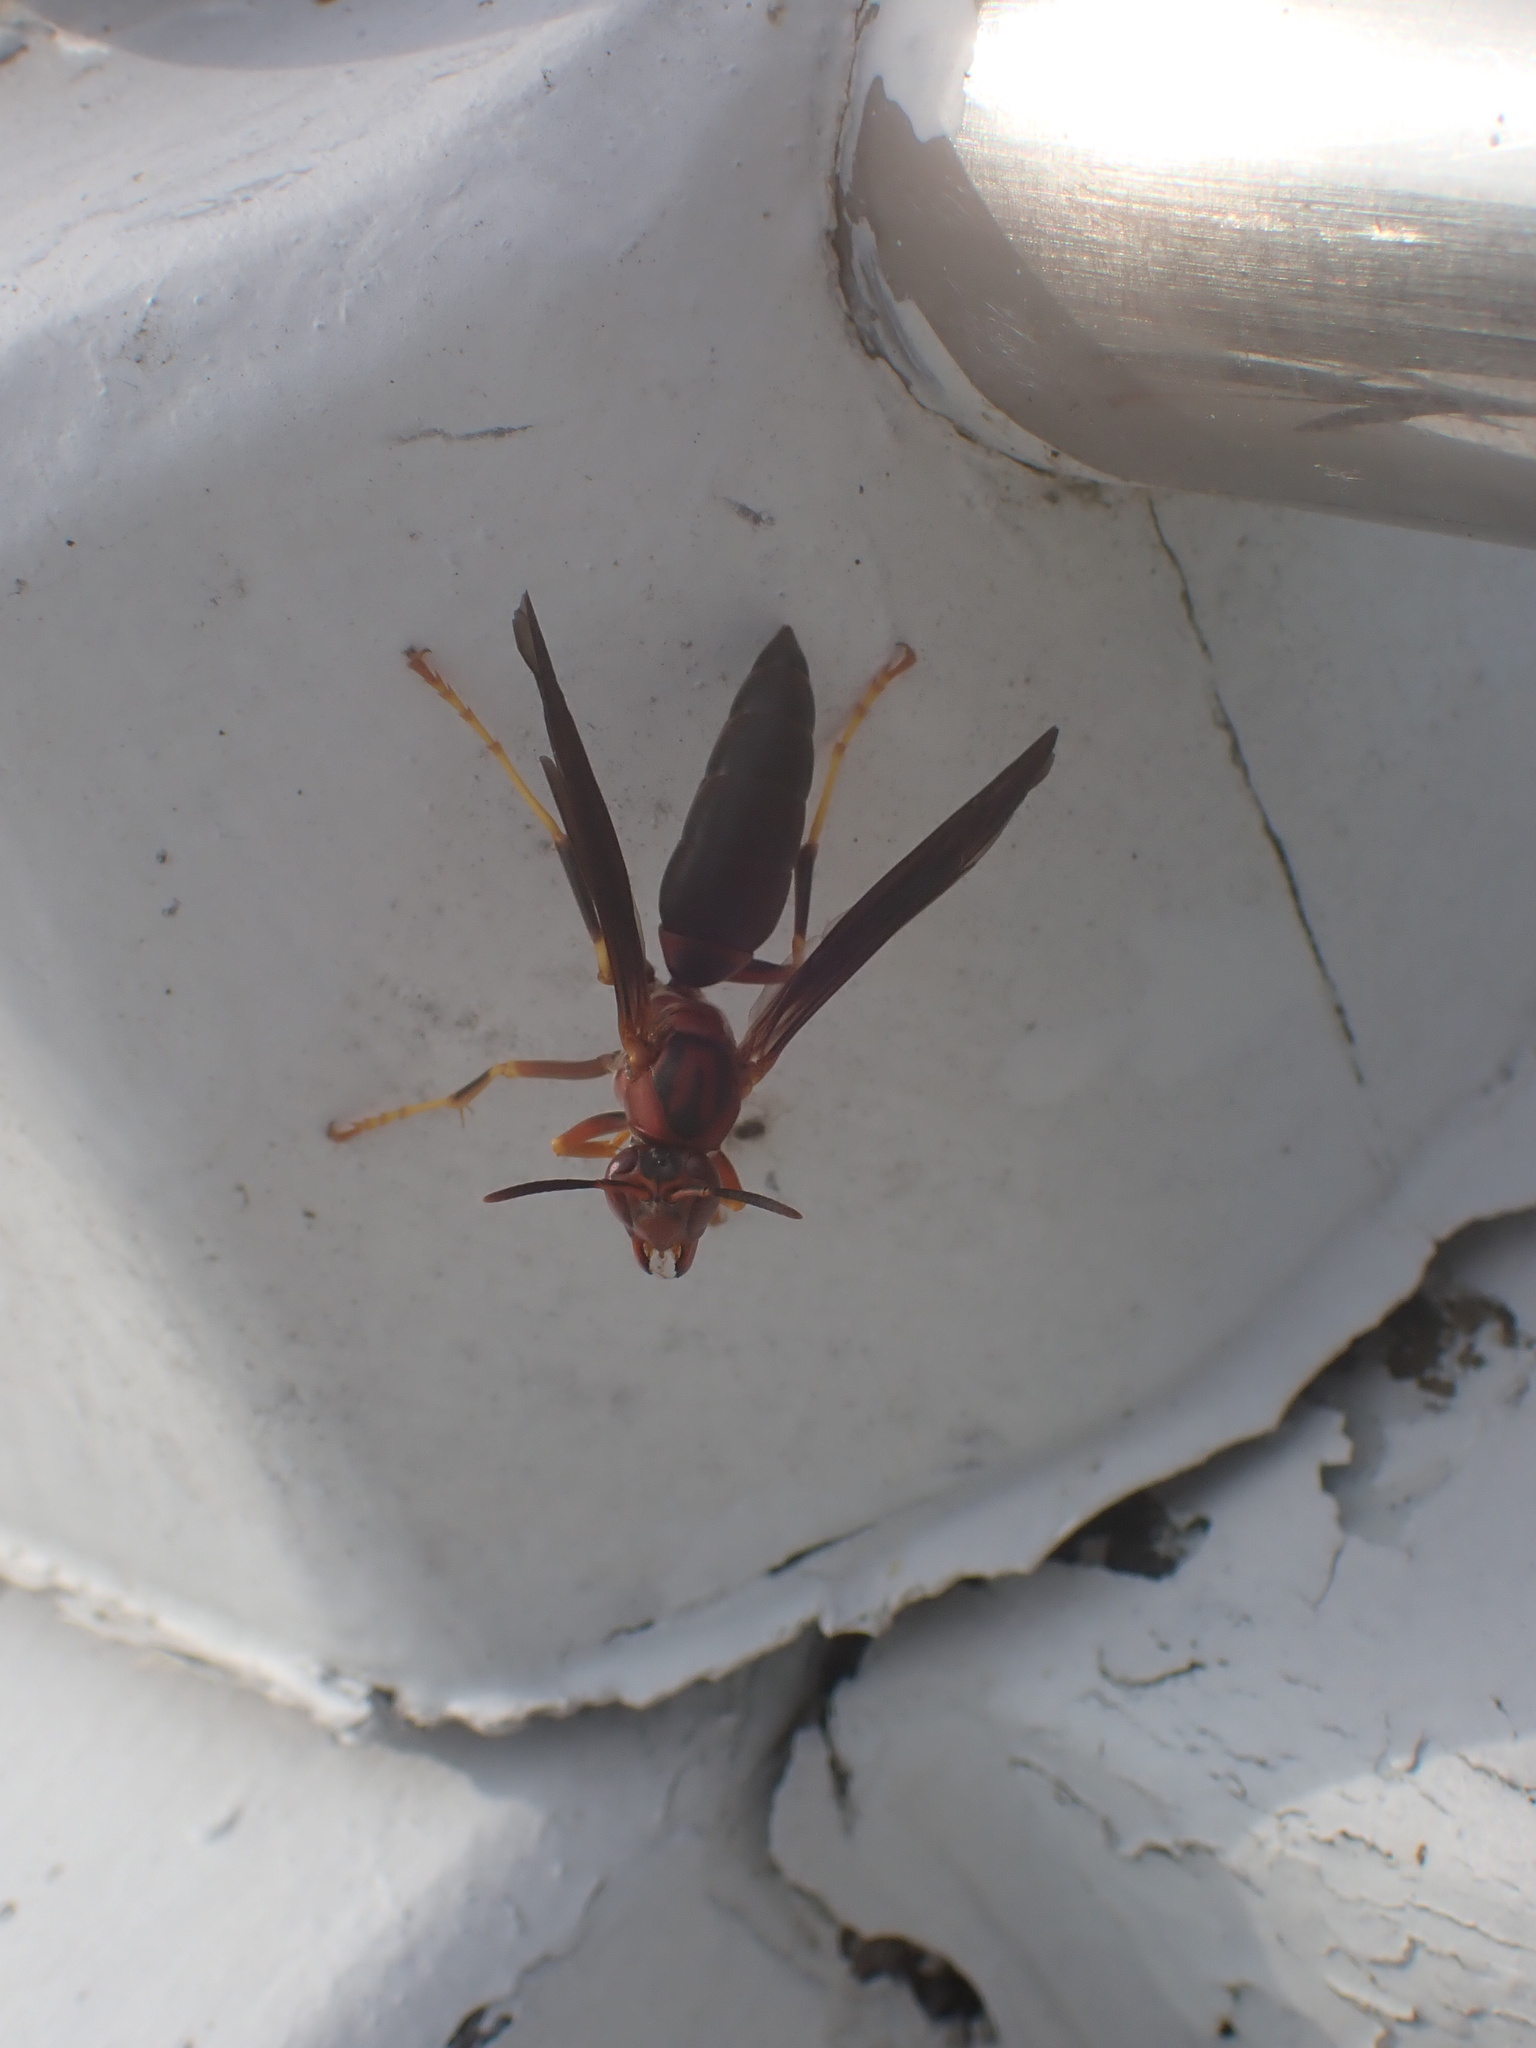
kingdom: Animalia
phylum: Arthropoda
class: Insecta
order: Hymenoptera
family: Eumenidae
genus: Polistes
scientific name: Polistes metricus
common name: Metric paper wasp
